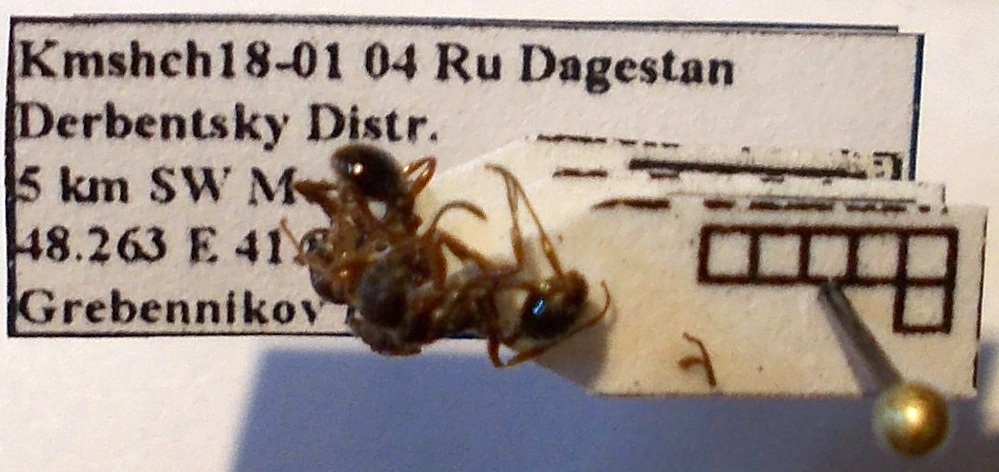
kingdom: Animalia
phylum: Arthropoda
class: Insecta
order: Hymenoptera
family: Formicidae
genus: Myrmica
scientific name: Myrmica bergi
